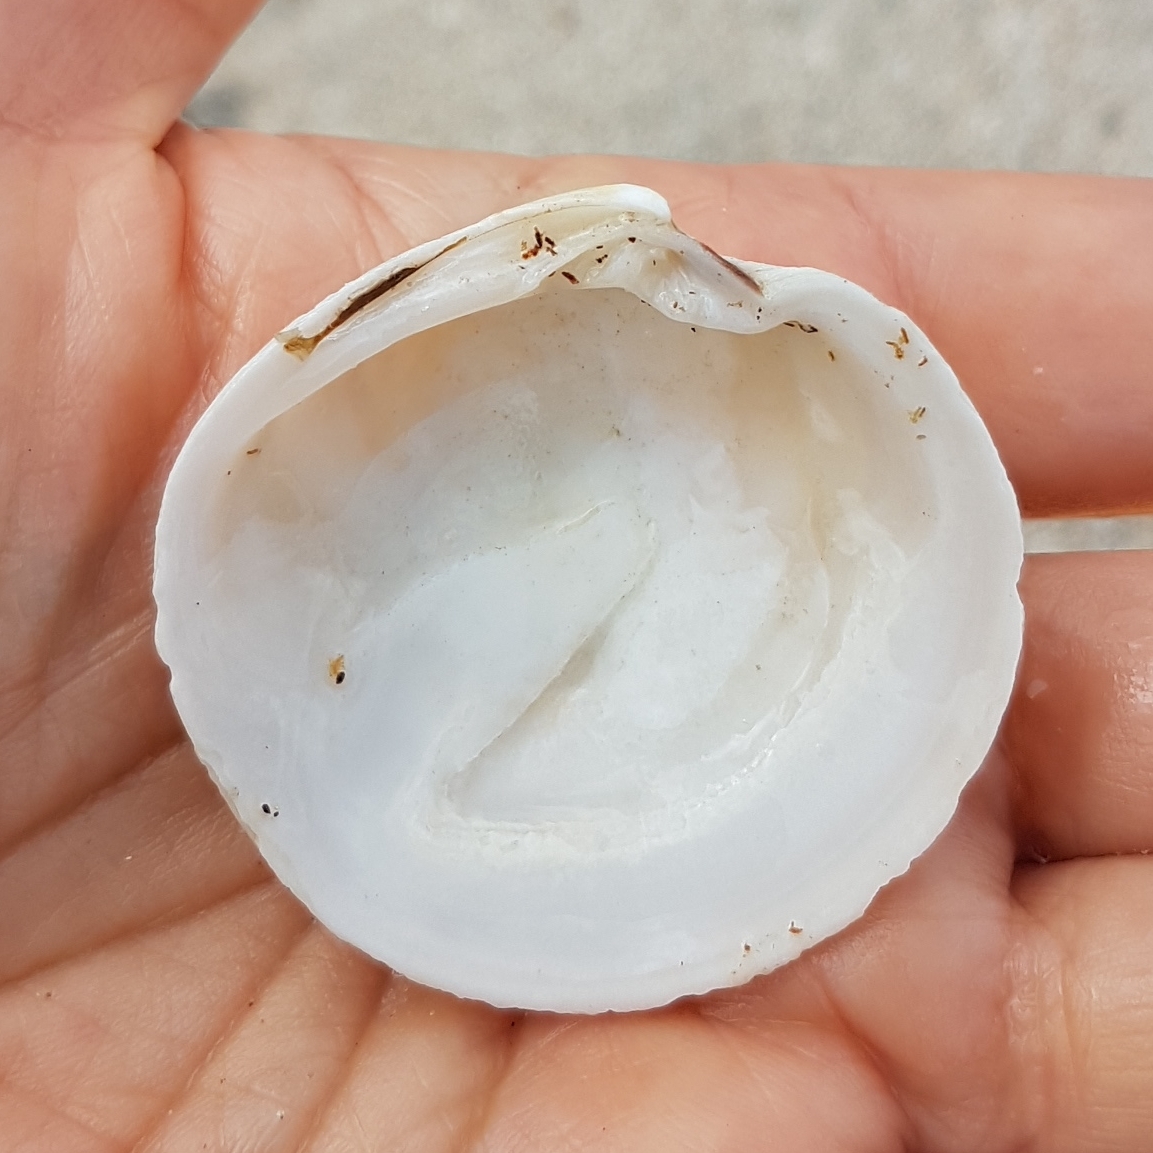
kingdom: Animalia
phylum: Mollusca
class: Bivalvia
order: Venerida
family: Veneridae
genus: Dosinia
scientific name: Dosinia exoleta
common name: Rayed artemis
